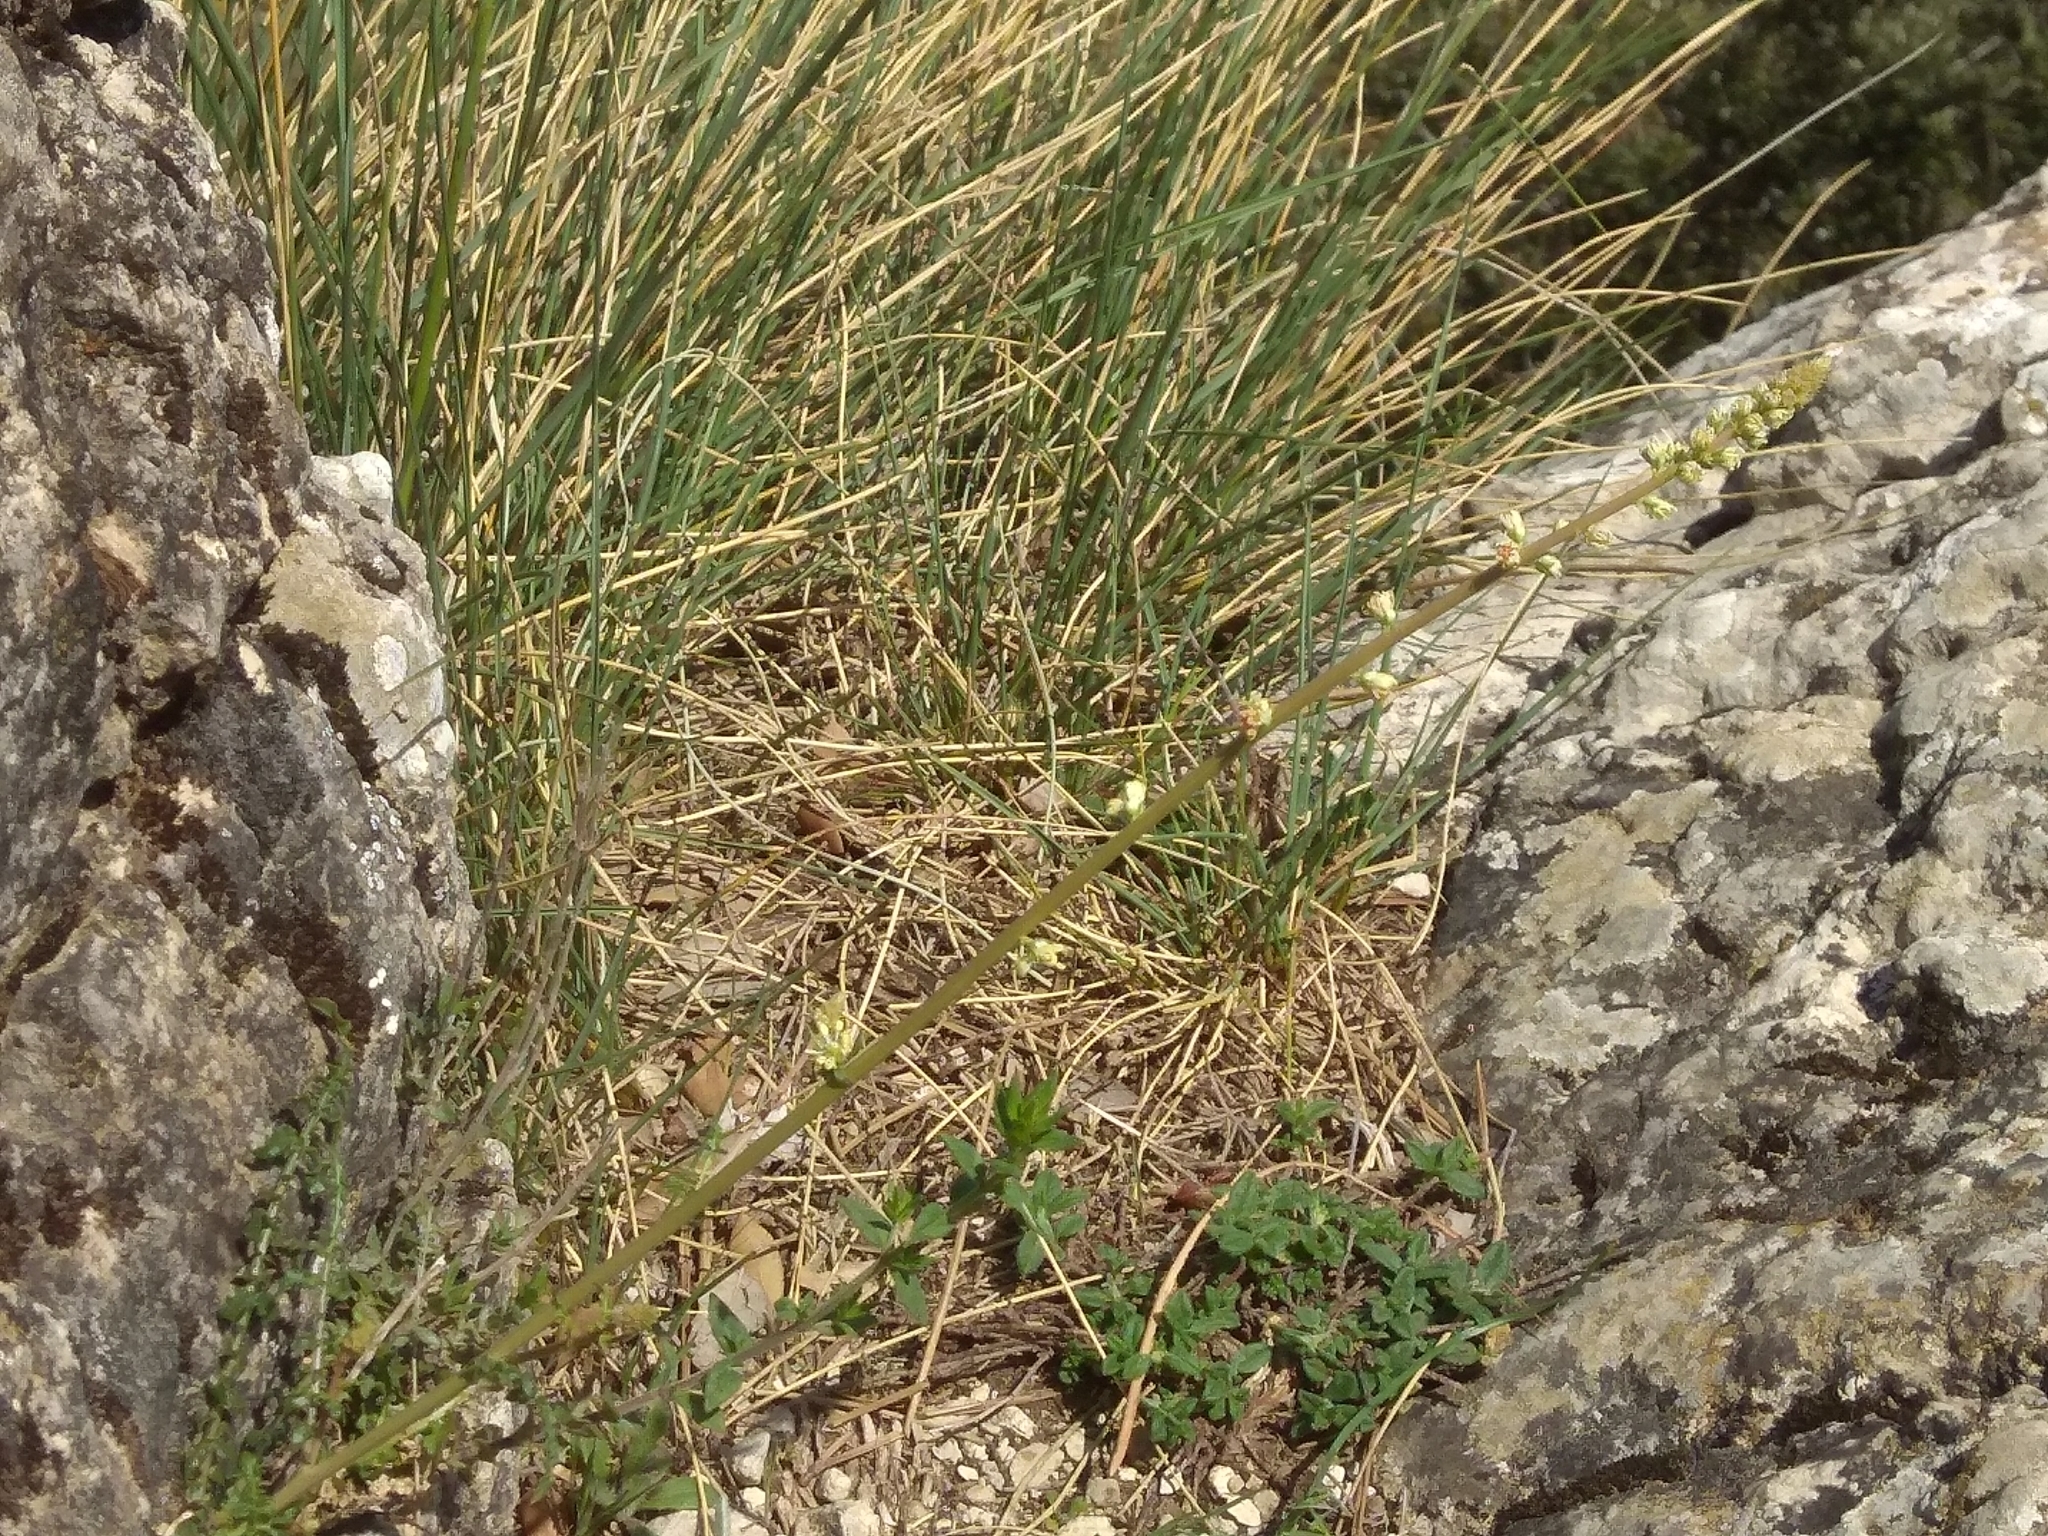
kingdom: Plantae
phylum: Tracheophyta
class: Magnoliopsida
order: Brassicales
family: Resedaceae
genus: Reseda
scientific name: Reseda undata
